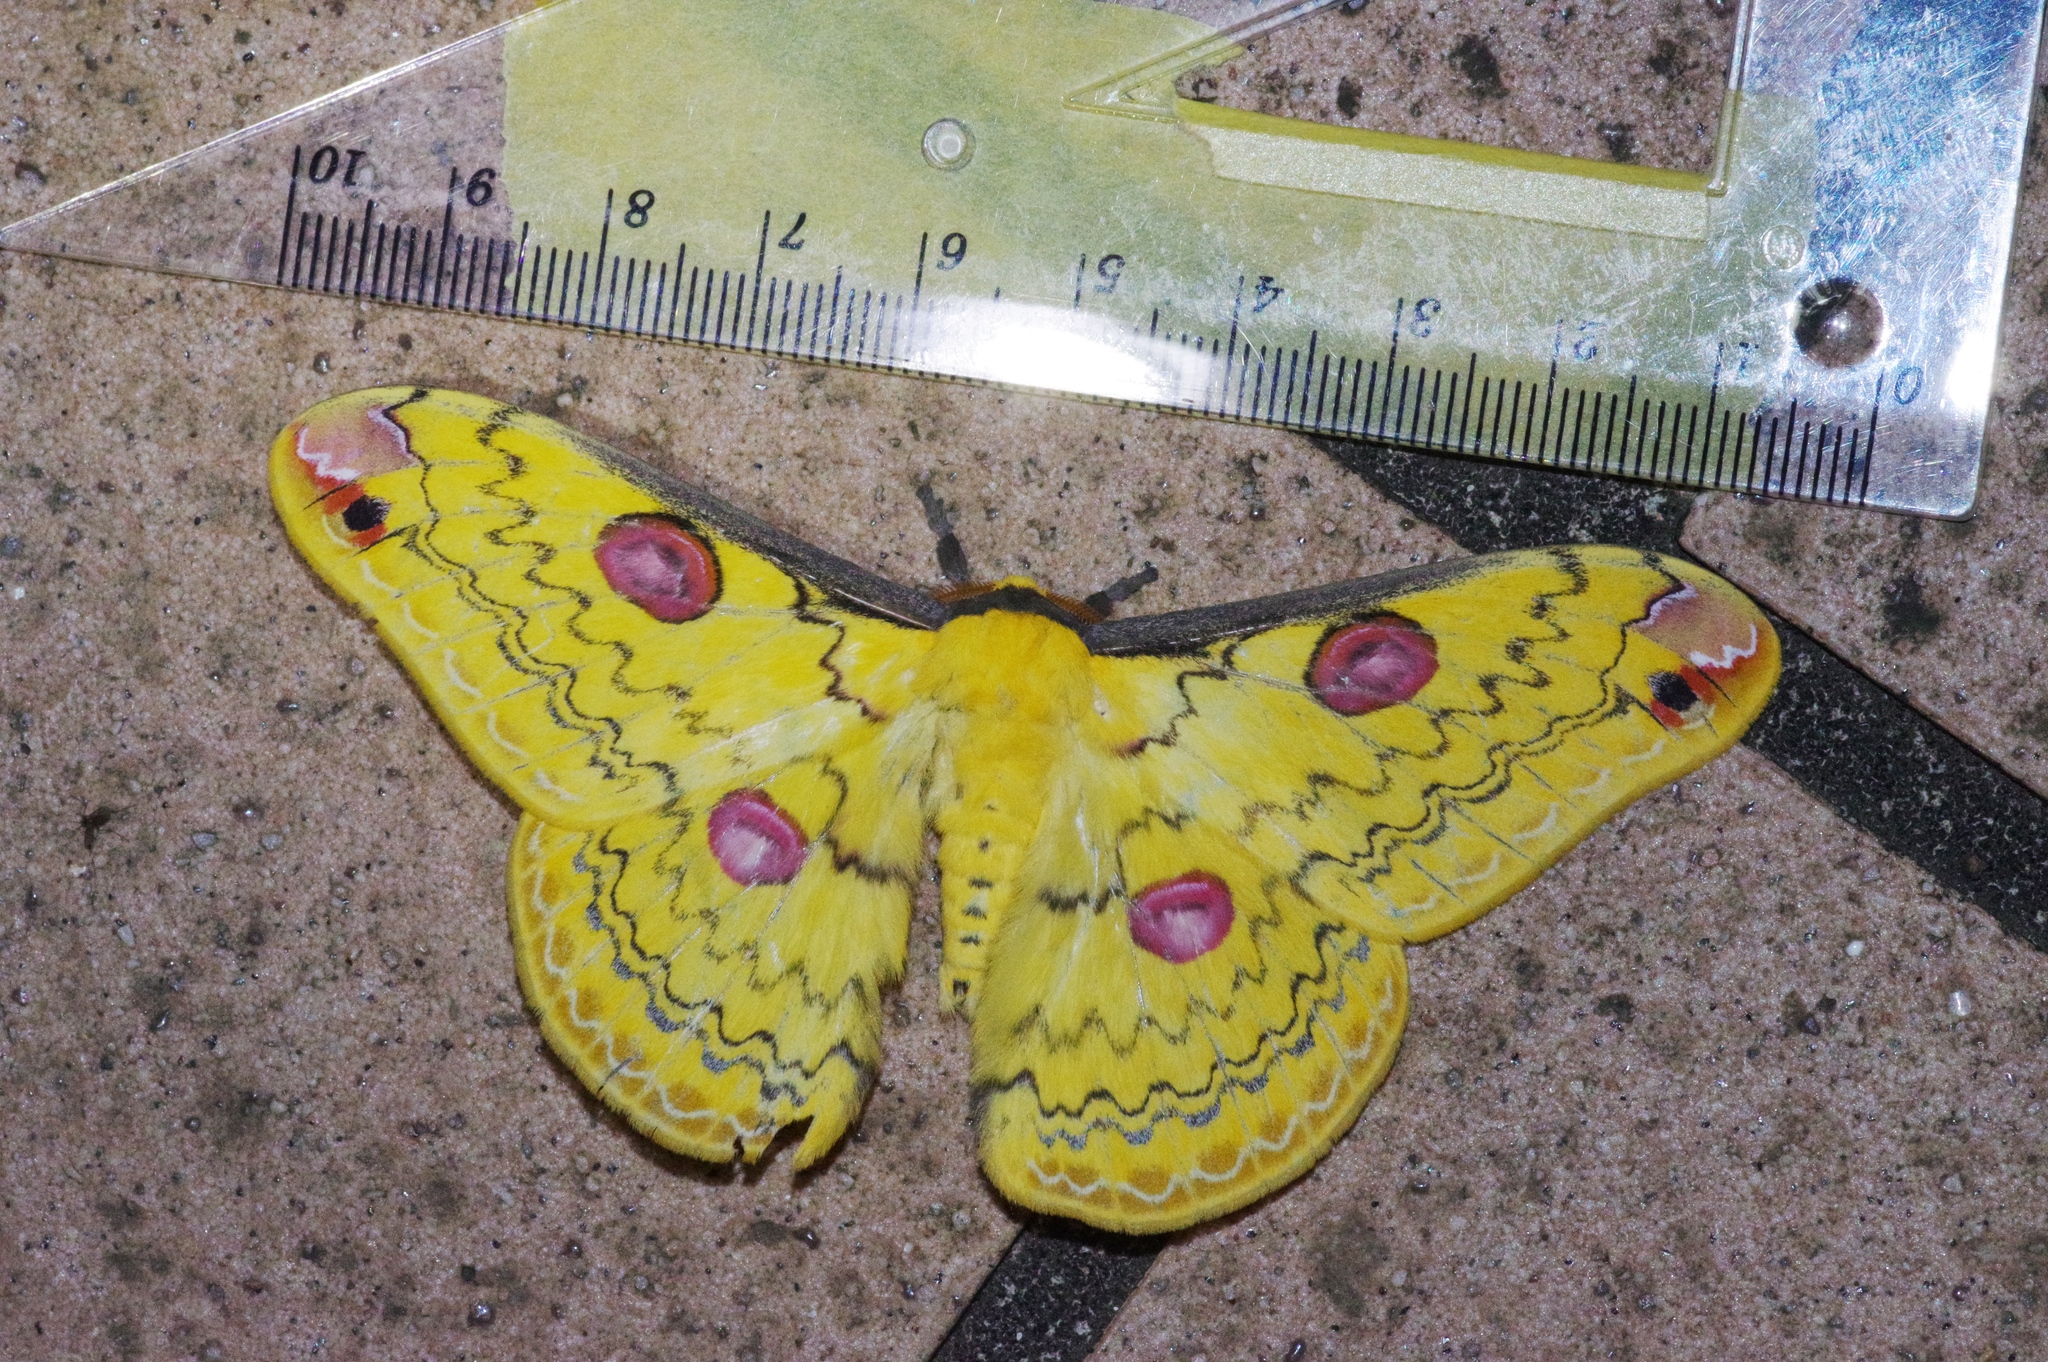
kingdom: Animalia
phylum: Arthropoda
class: Insecta
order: Lepidoptera
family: Saturniidae
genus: Loepa
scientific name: Loepa sakaei
